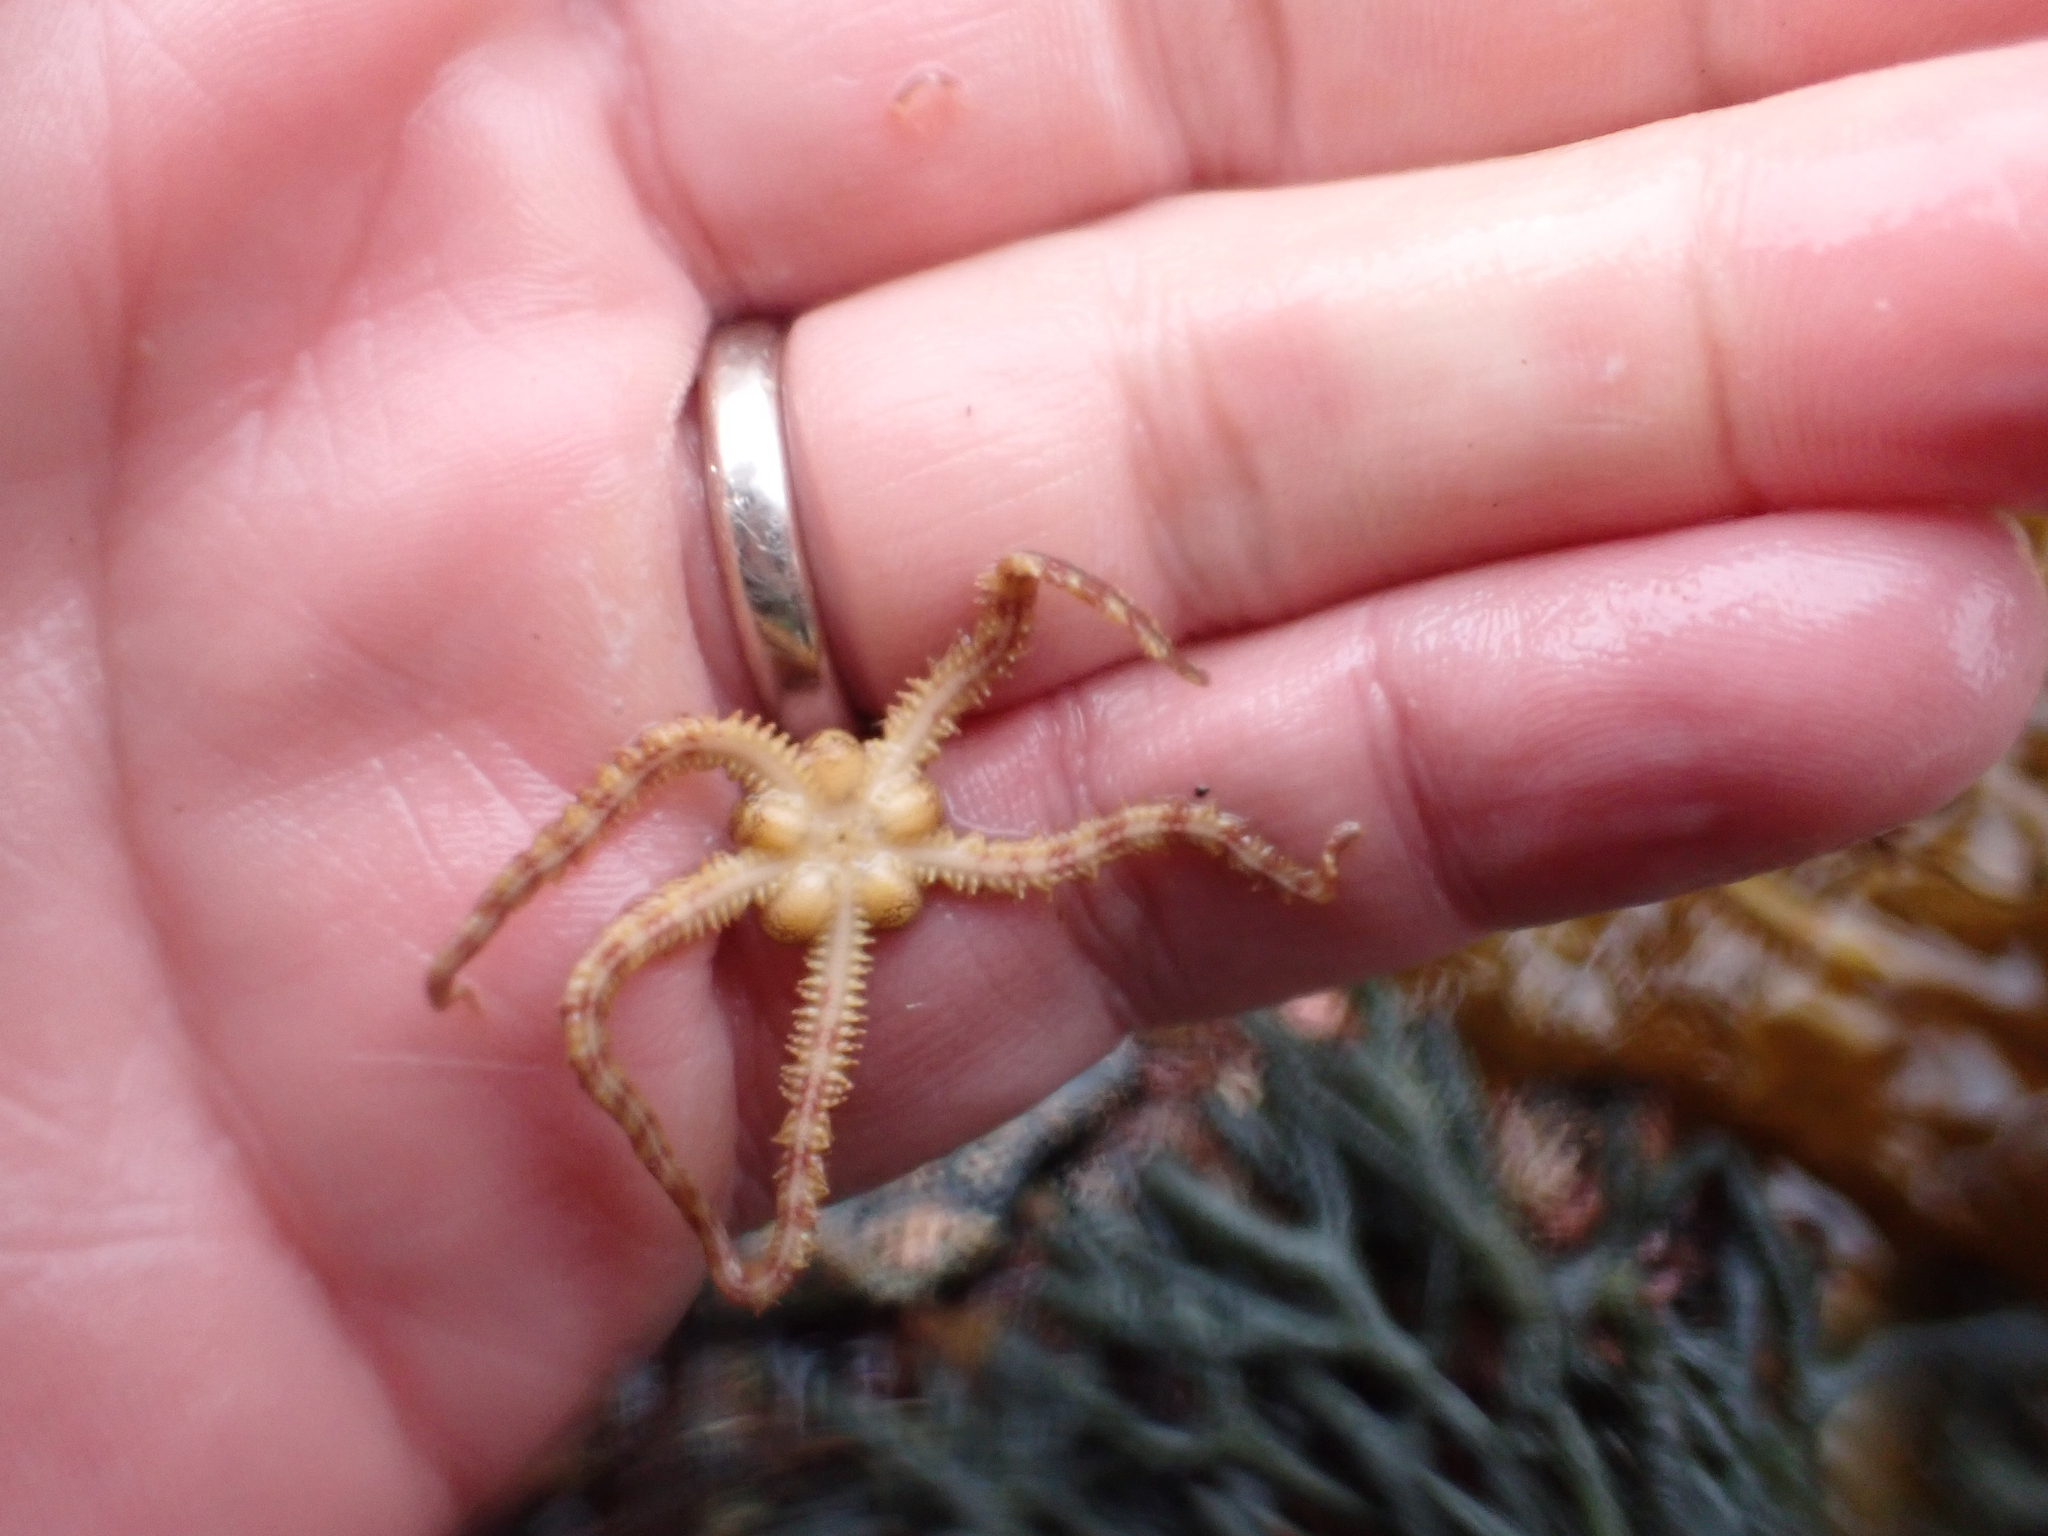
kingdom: Animalia
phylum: Echinodermata
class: Ophiuroidea
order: Amphilepidida
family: Ophiopholidae
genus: Ophiopholis
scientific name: Ophiopholis kennerlyi
